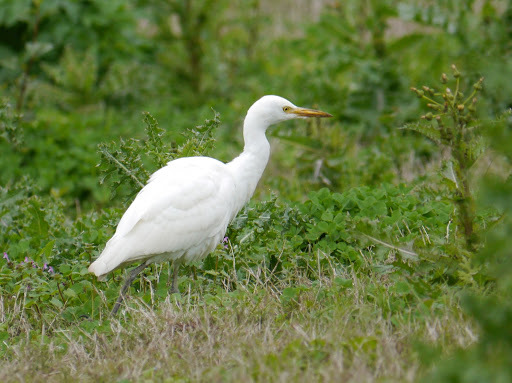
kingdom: Animalia
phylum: Chordata
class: Aves
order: Pelecaniformes
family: Ardeidae
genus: Bubulcus
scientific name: Bubulcus ibis
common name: Cattle egret
